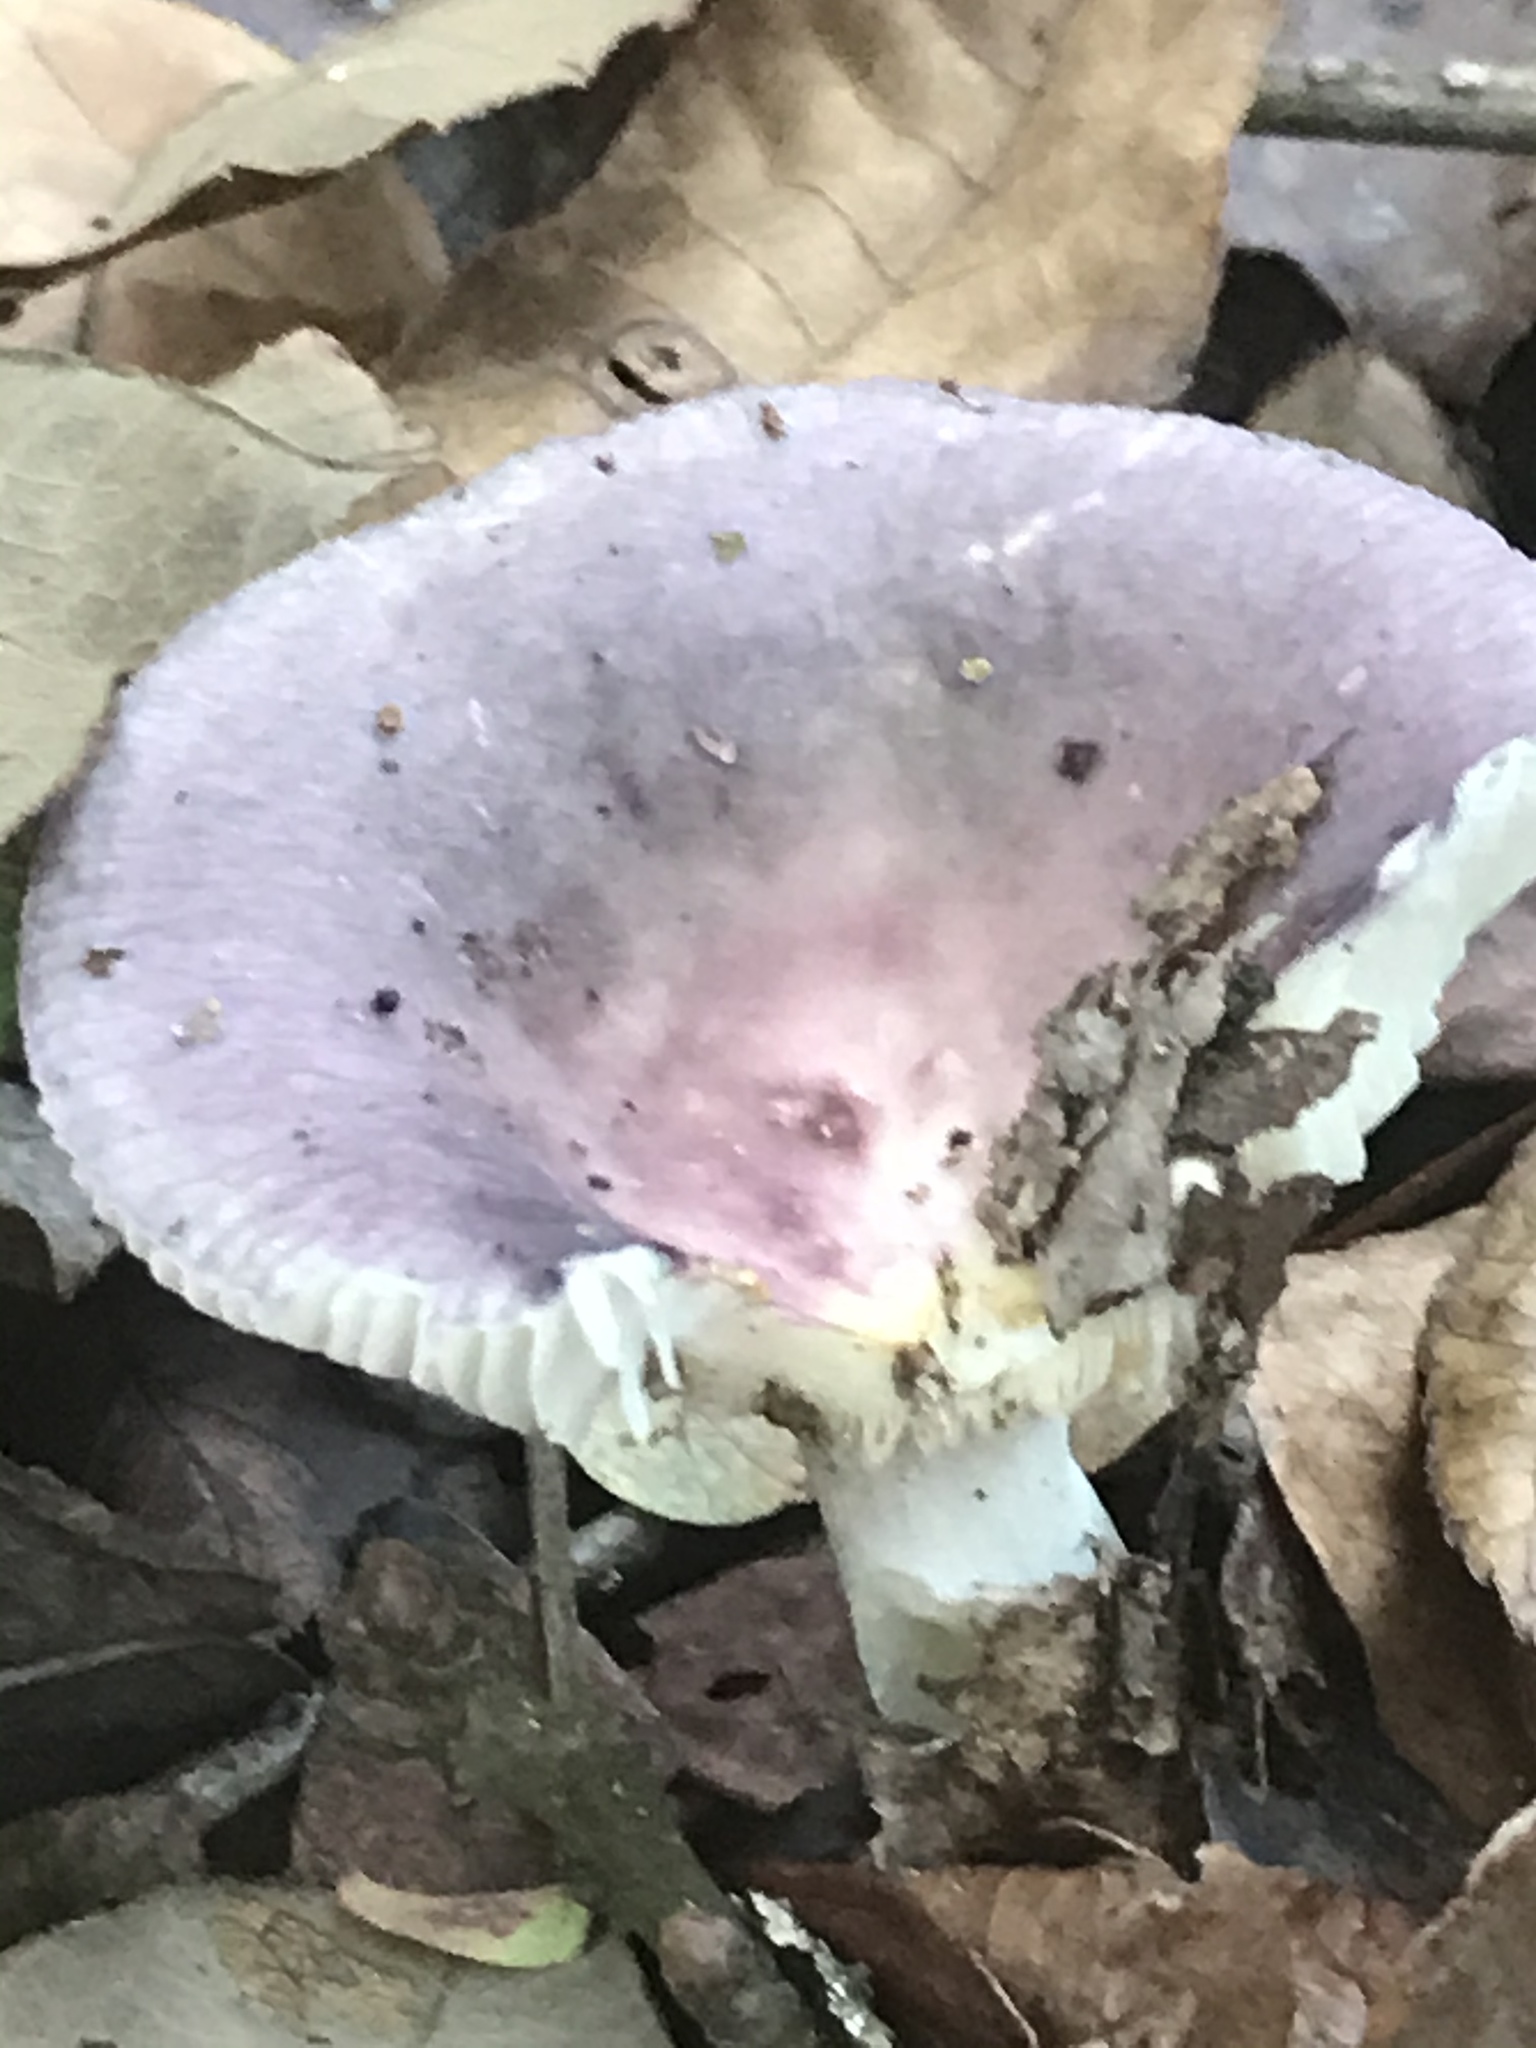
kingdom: Fungi
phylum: Basidiomycota
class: Agaricomycetes
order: Russulales
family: Russulaceae
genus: Russula
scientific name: Russula cyanoxantha
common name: Charcoal burner
